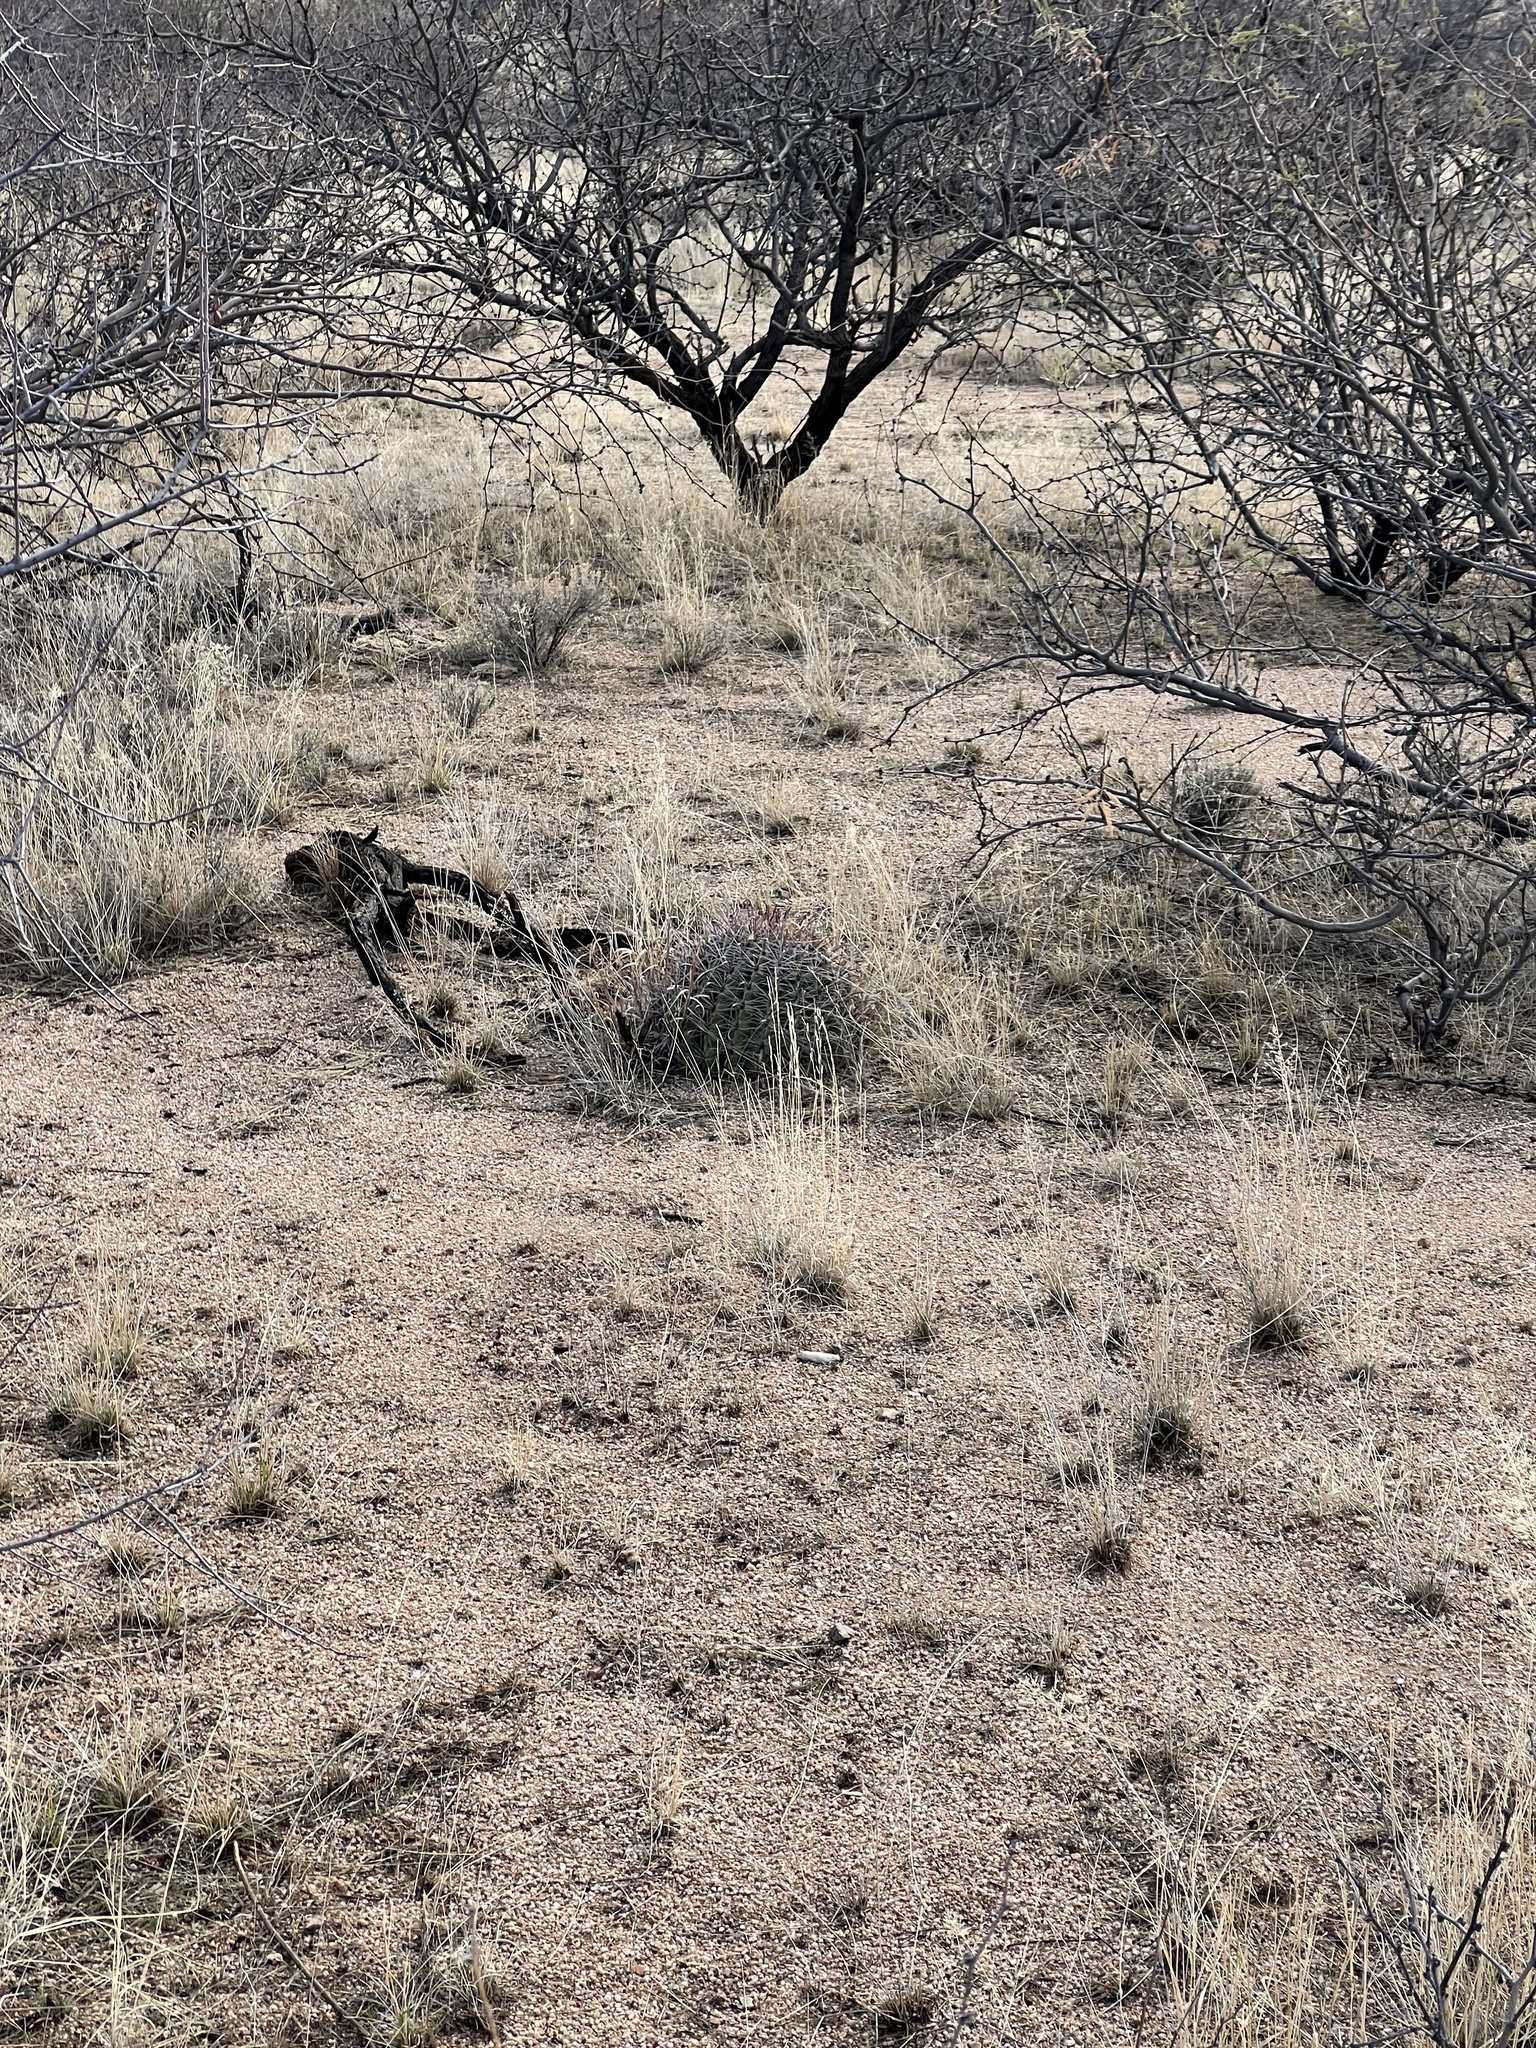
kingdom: Plantae
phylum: Tracheophyta
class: Magnoliopsida
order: Caryophyllales
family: Cactaceae
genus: Ferocactus
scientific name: Ferocactus wislizeni
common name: Candy barrel cactus
